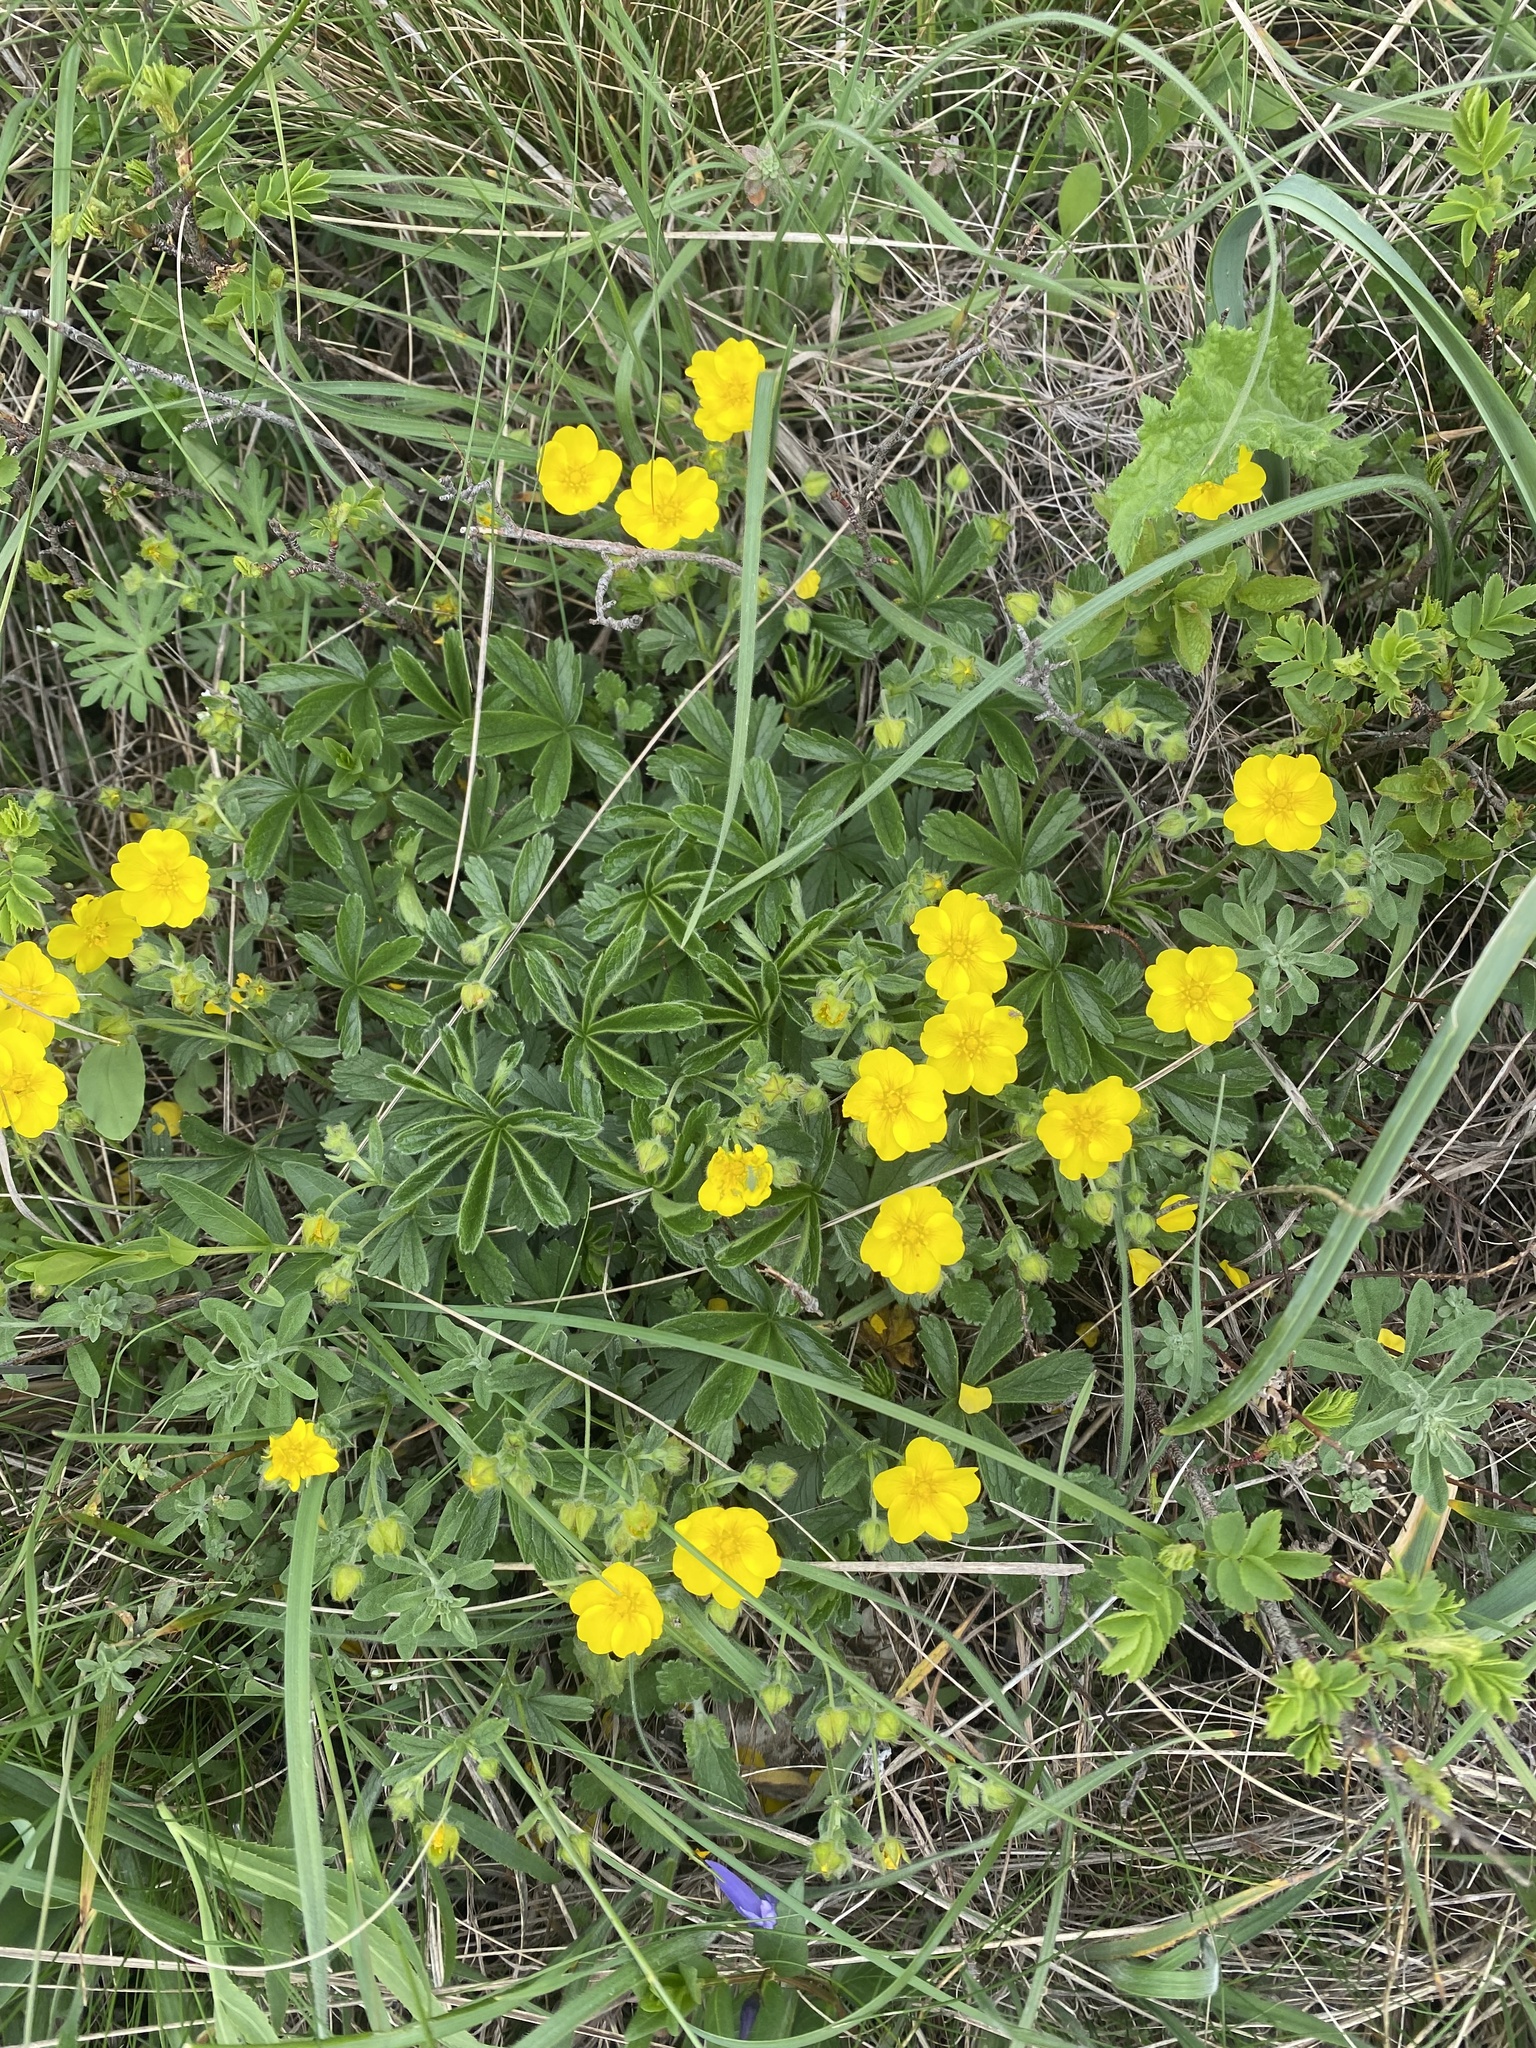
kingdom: Plantae
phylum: Tracheophyta
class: Magnoliopsida
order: Rosales
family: Rosaceae
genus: Potentilla
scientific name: Potentilla sphenophylla
